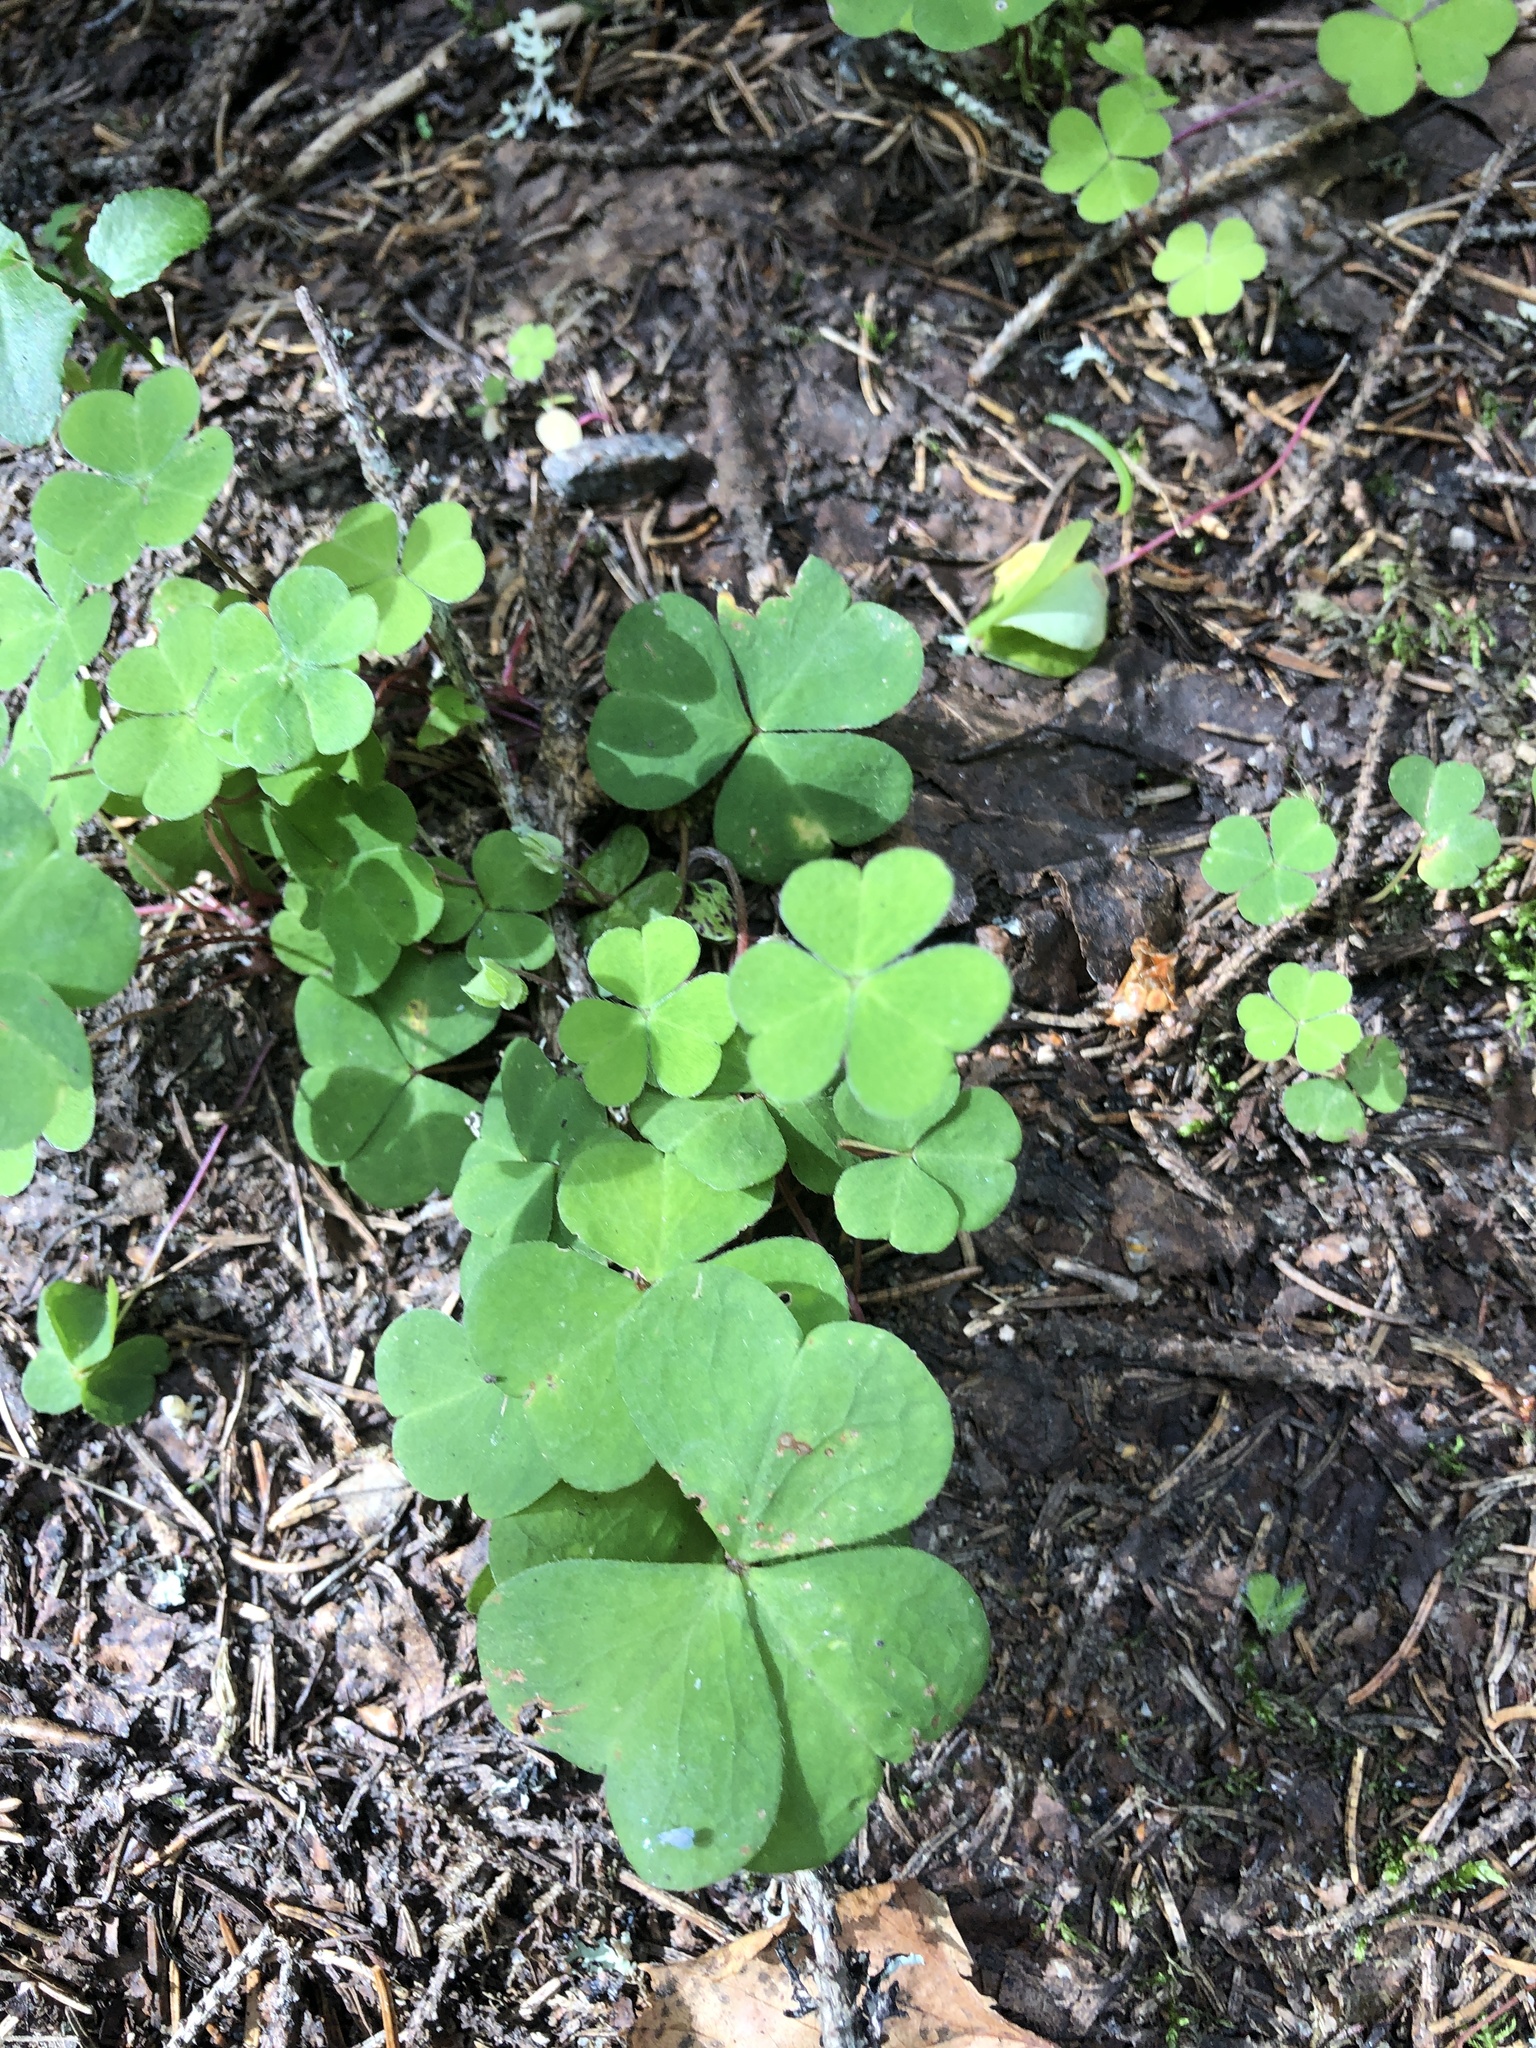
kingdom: Plantae
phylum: Tracheophyta
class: Magnoliopsida
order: Oxalidales
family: Oxalidaceae
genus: Oxalis
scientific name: Oxalis acetosella
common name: Wood-sorrel
